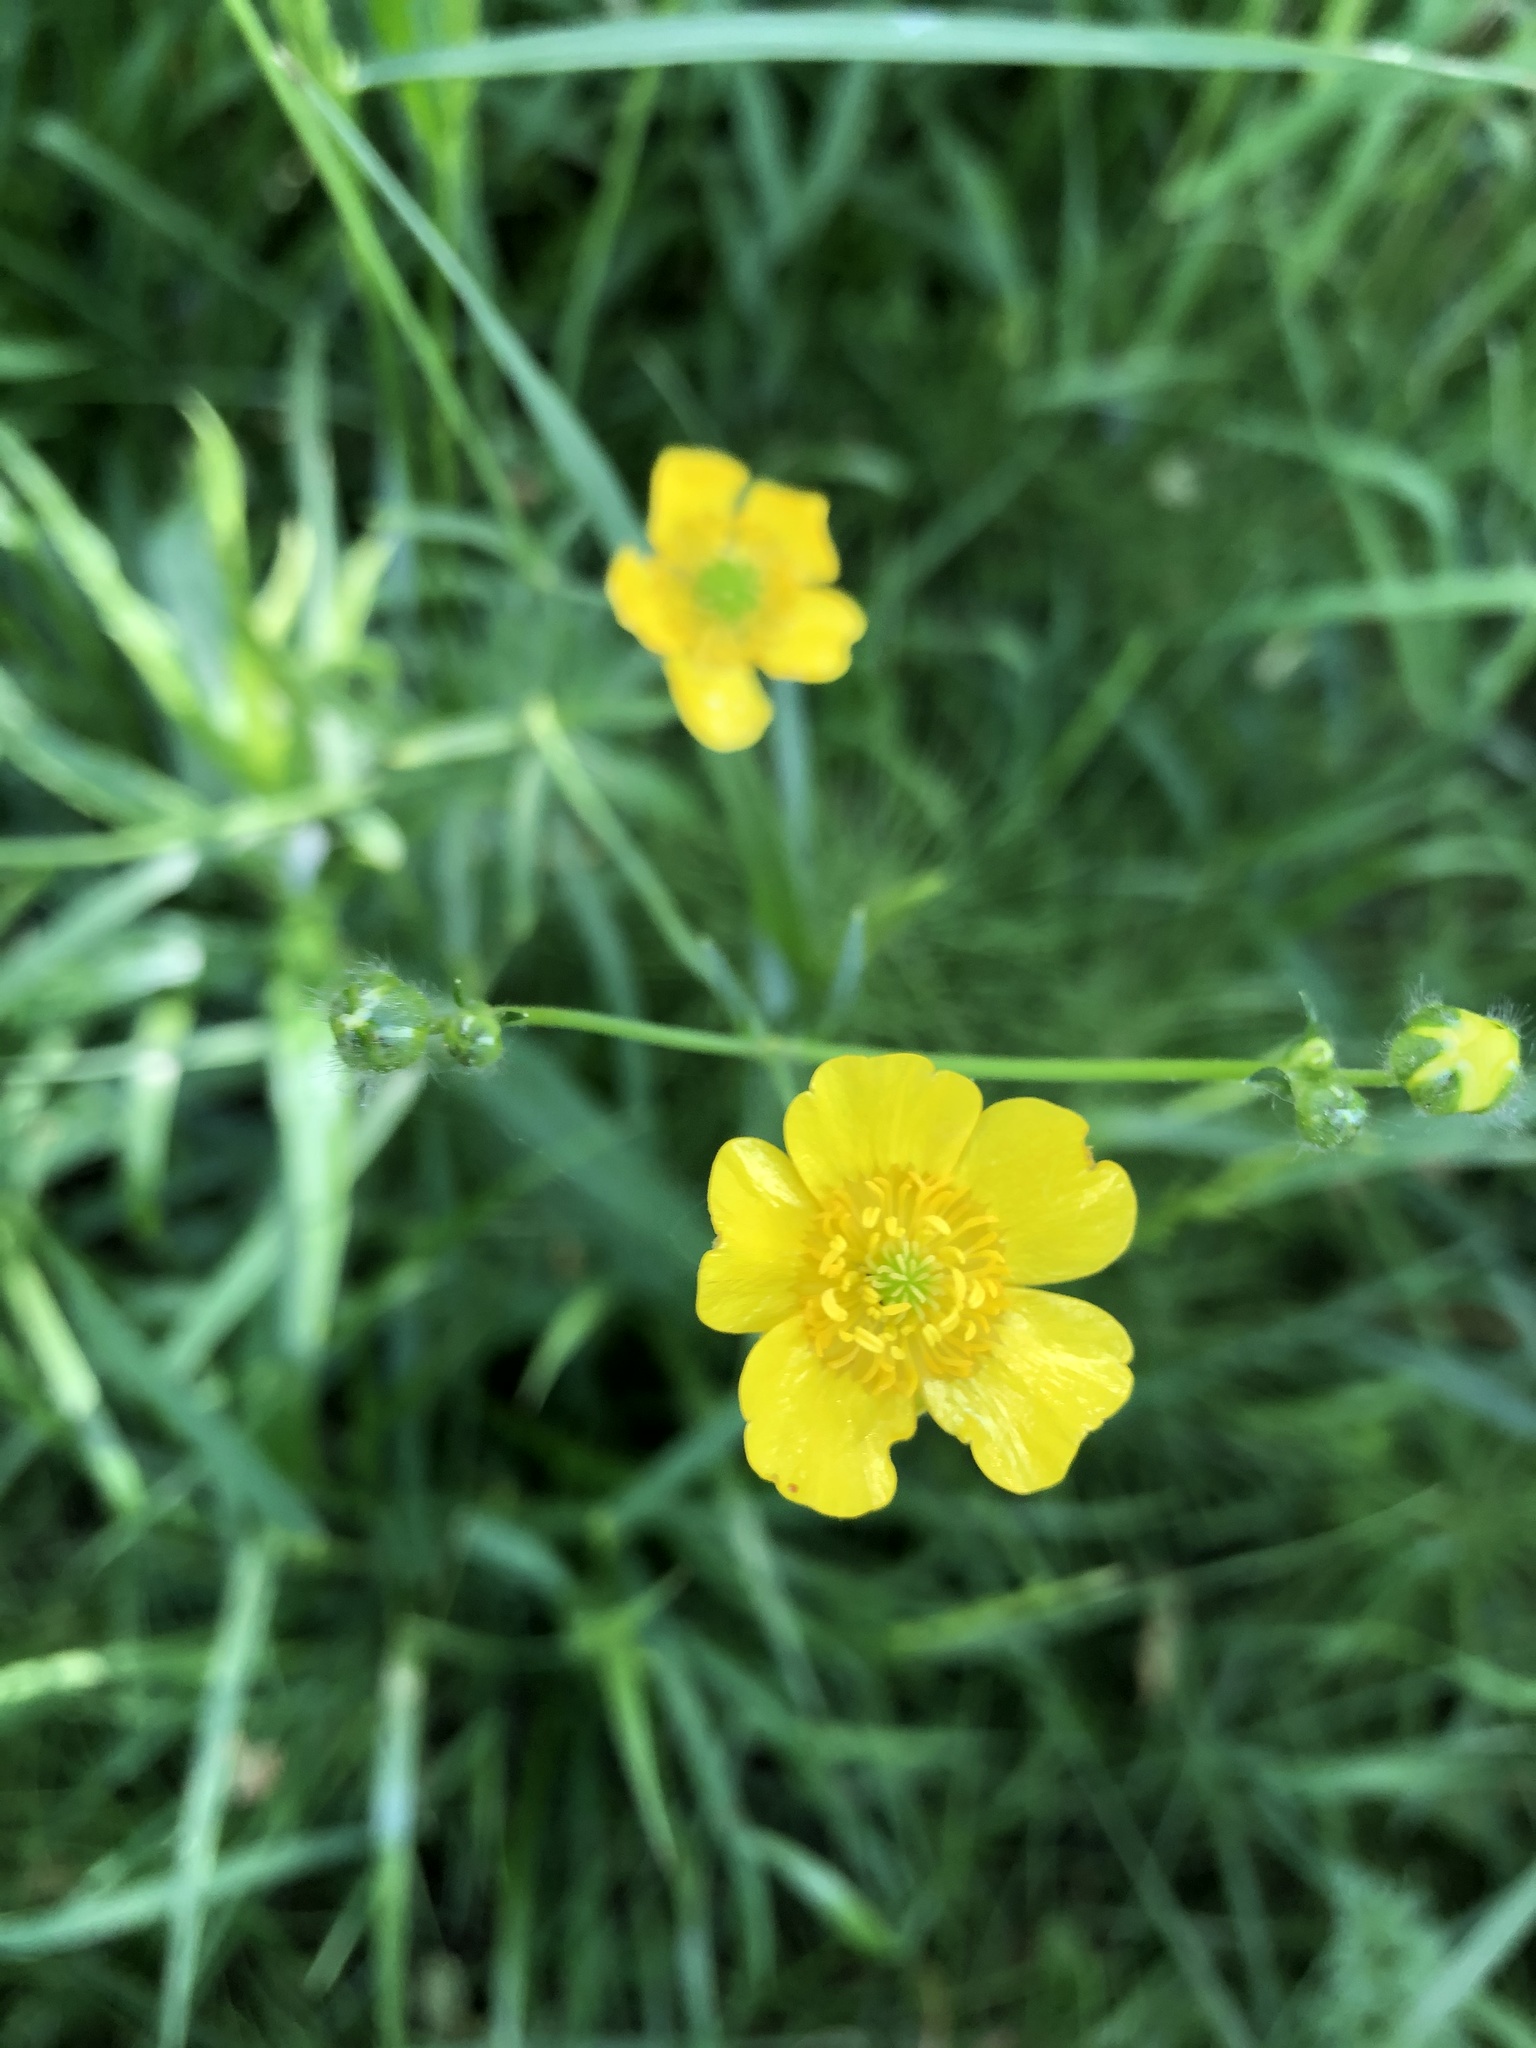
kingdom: Plantae
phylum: Tracheophyta
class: Magnoliopsida
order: Ranunculales
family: Ranunculaceae
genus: Ranunculus
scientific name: Ranunculus acris
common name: Meadow buttercup
